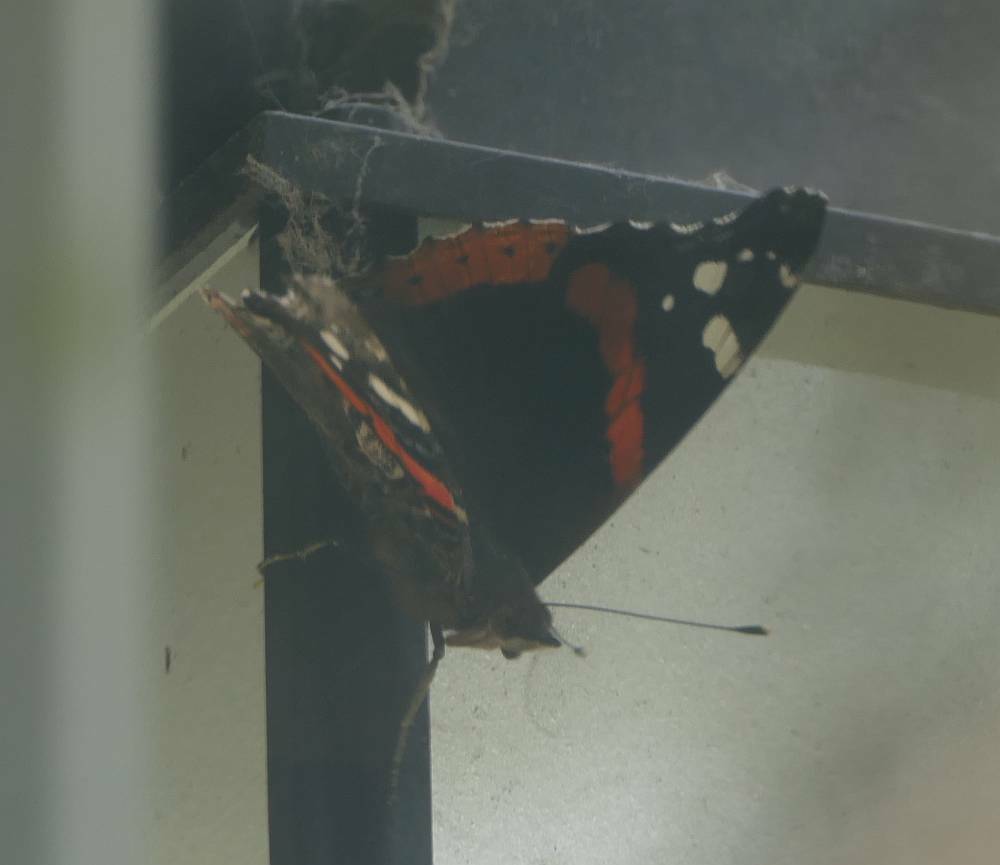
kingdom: Animalia
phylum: Arthropoda
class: Insecta
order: Lepidoptera
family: Nymphalidae
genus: Vanessa
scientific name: Vanessa atalanta
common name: Red admiral
